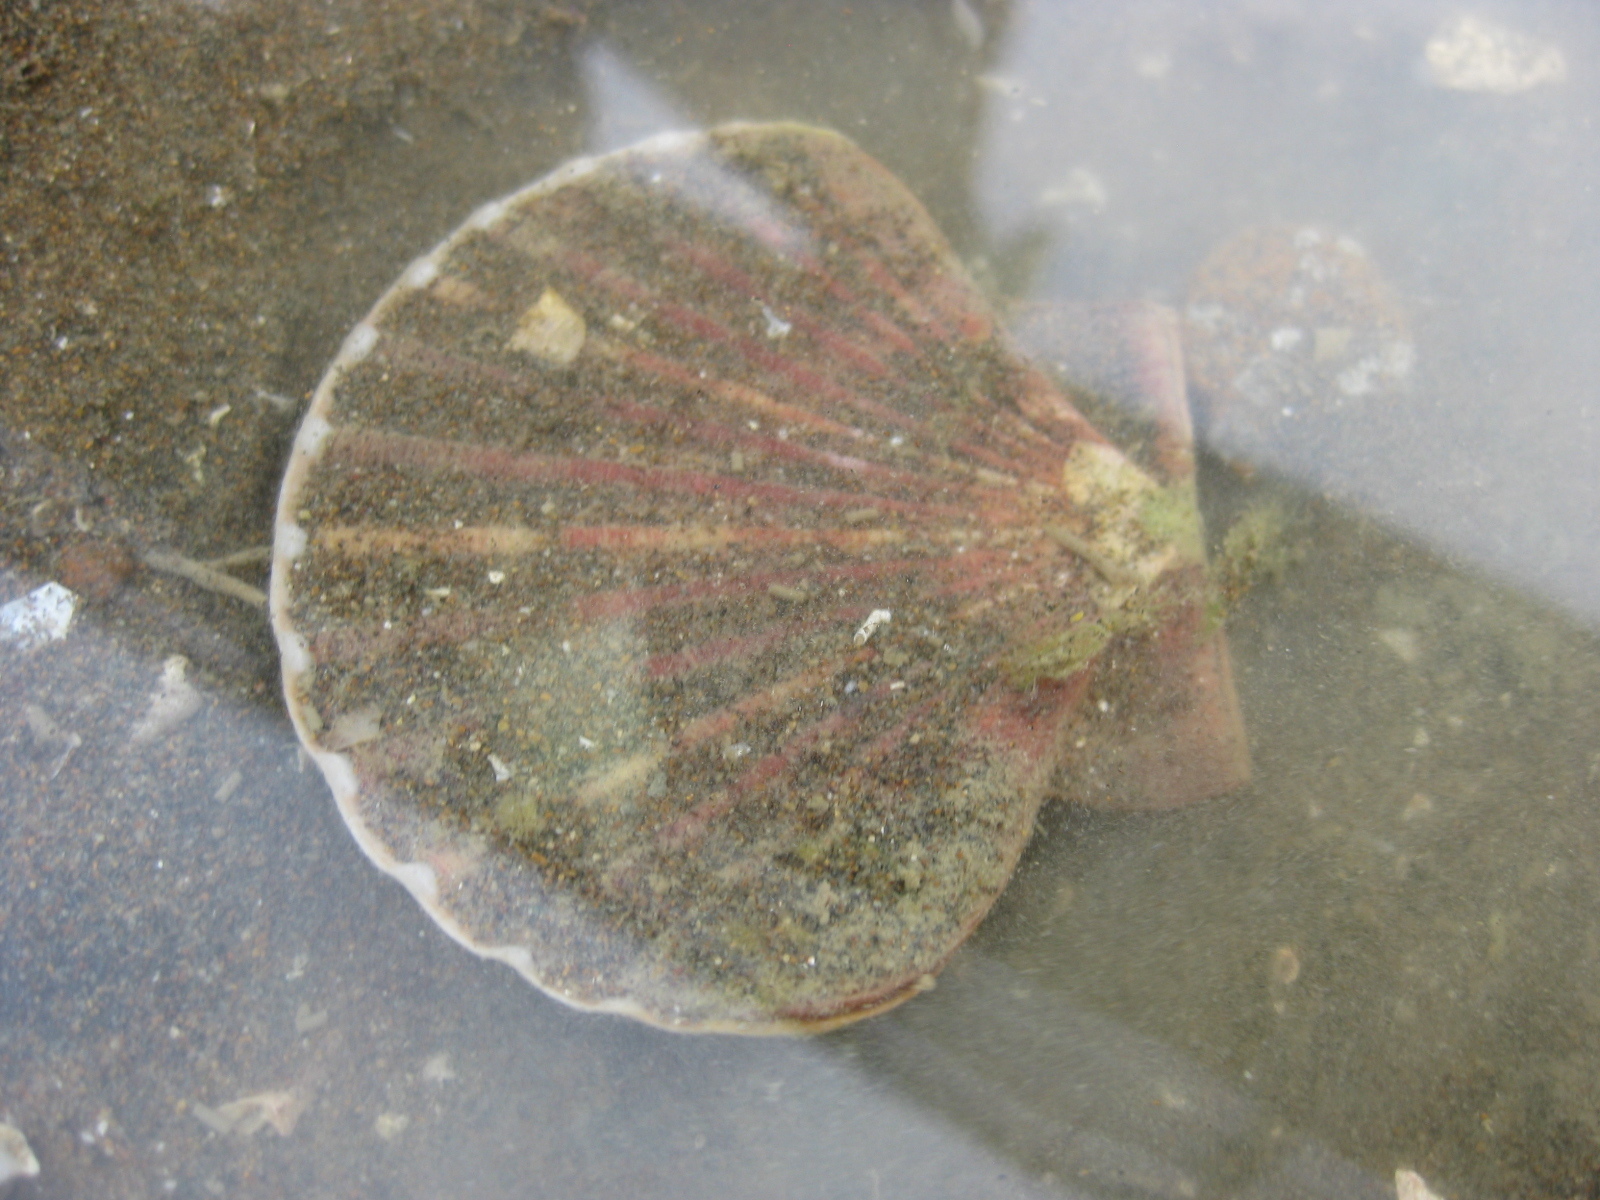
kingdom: Animalia
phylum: Mollusca
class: Bivalvia
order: Pectinida
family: Pectinidae
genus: Pecten
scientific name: Pecten novaezelandiae
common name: New zealand scallop
